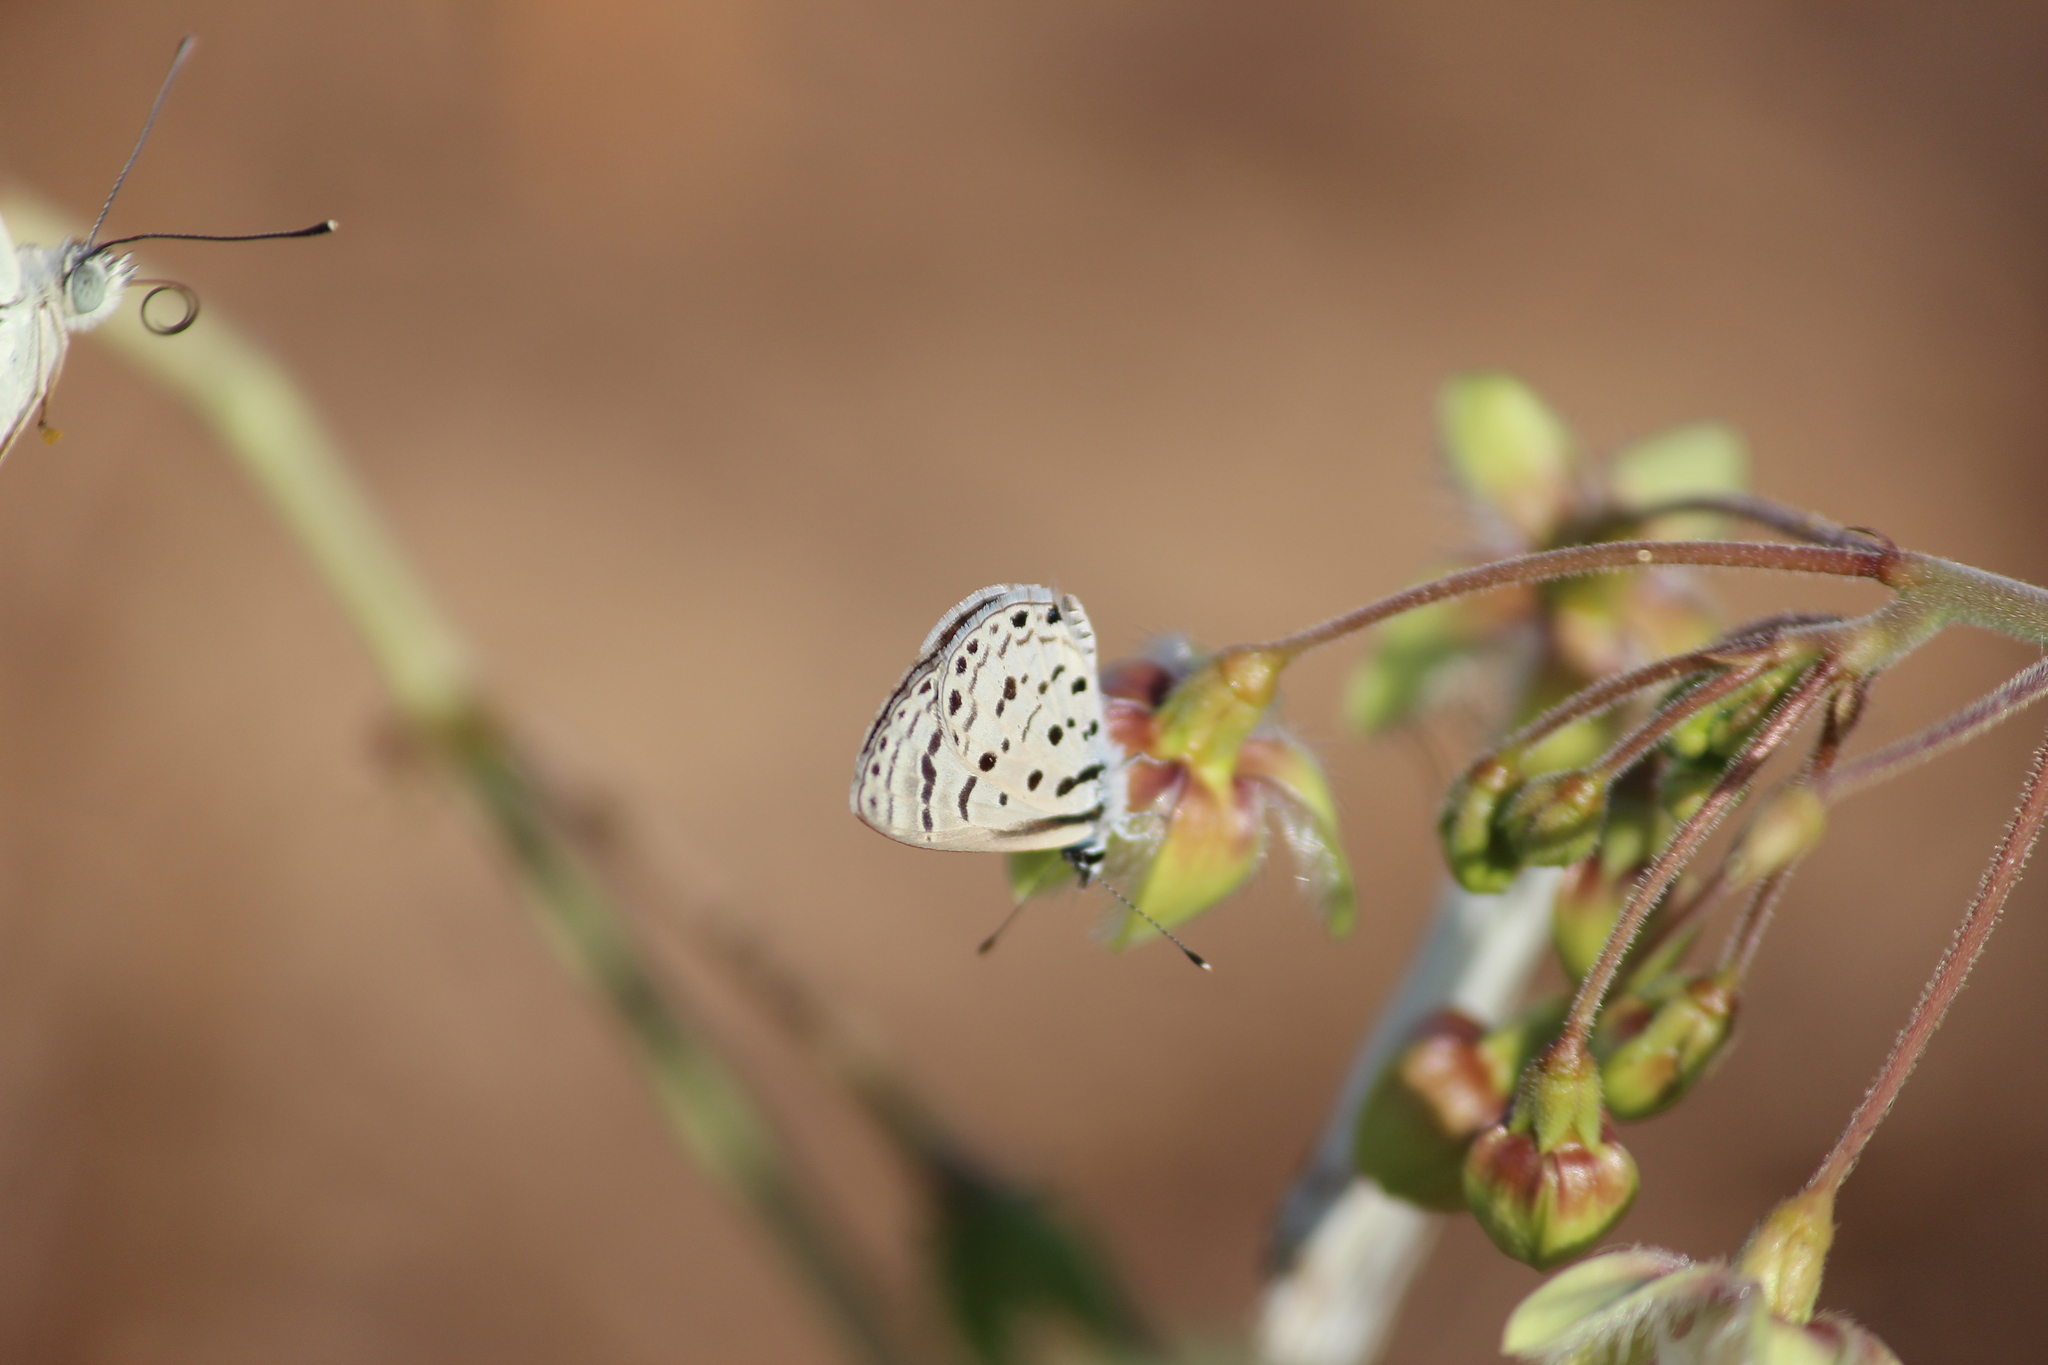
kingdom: Animalia
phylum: Arthropoda
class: Insecta
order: Lepidoptera
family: Lycaenidae
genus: Azanus
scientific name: Azanus moriqua
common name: Thorn-tree babul blue
